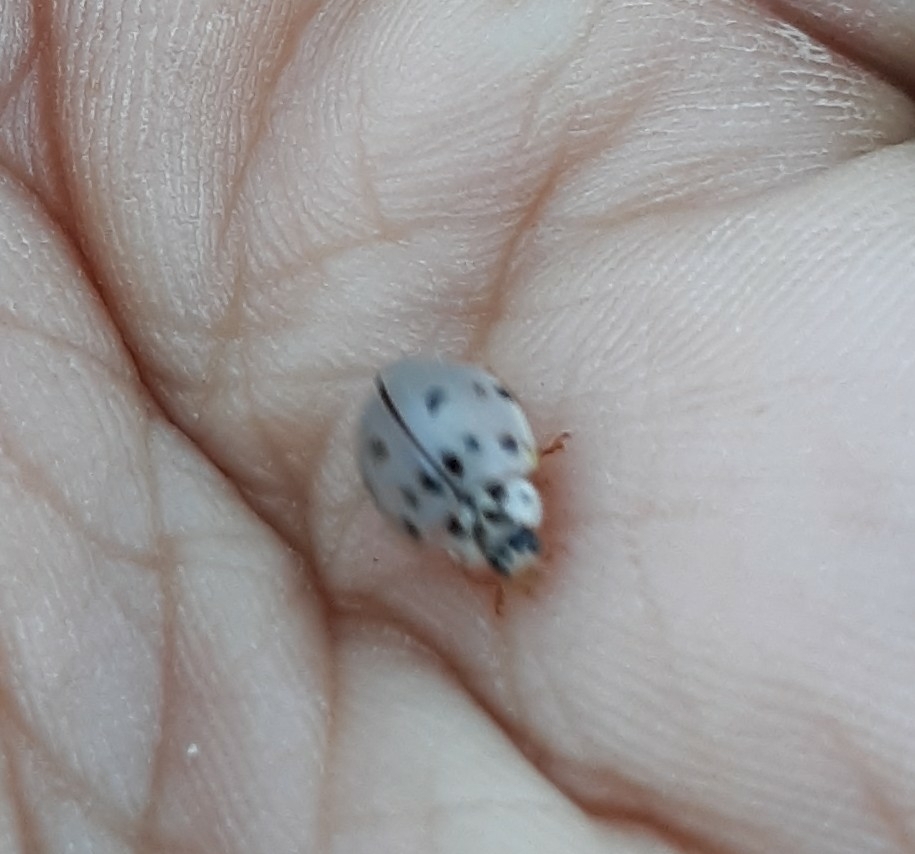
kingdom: Animalia
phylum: Arthropoda
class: Insecta
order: Coleoptera
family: Coccinellidae
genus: Olla
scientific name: Olla v-nigrum
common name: Ashy gray lady beetle
